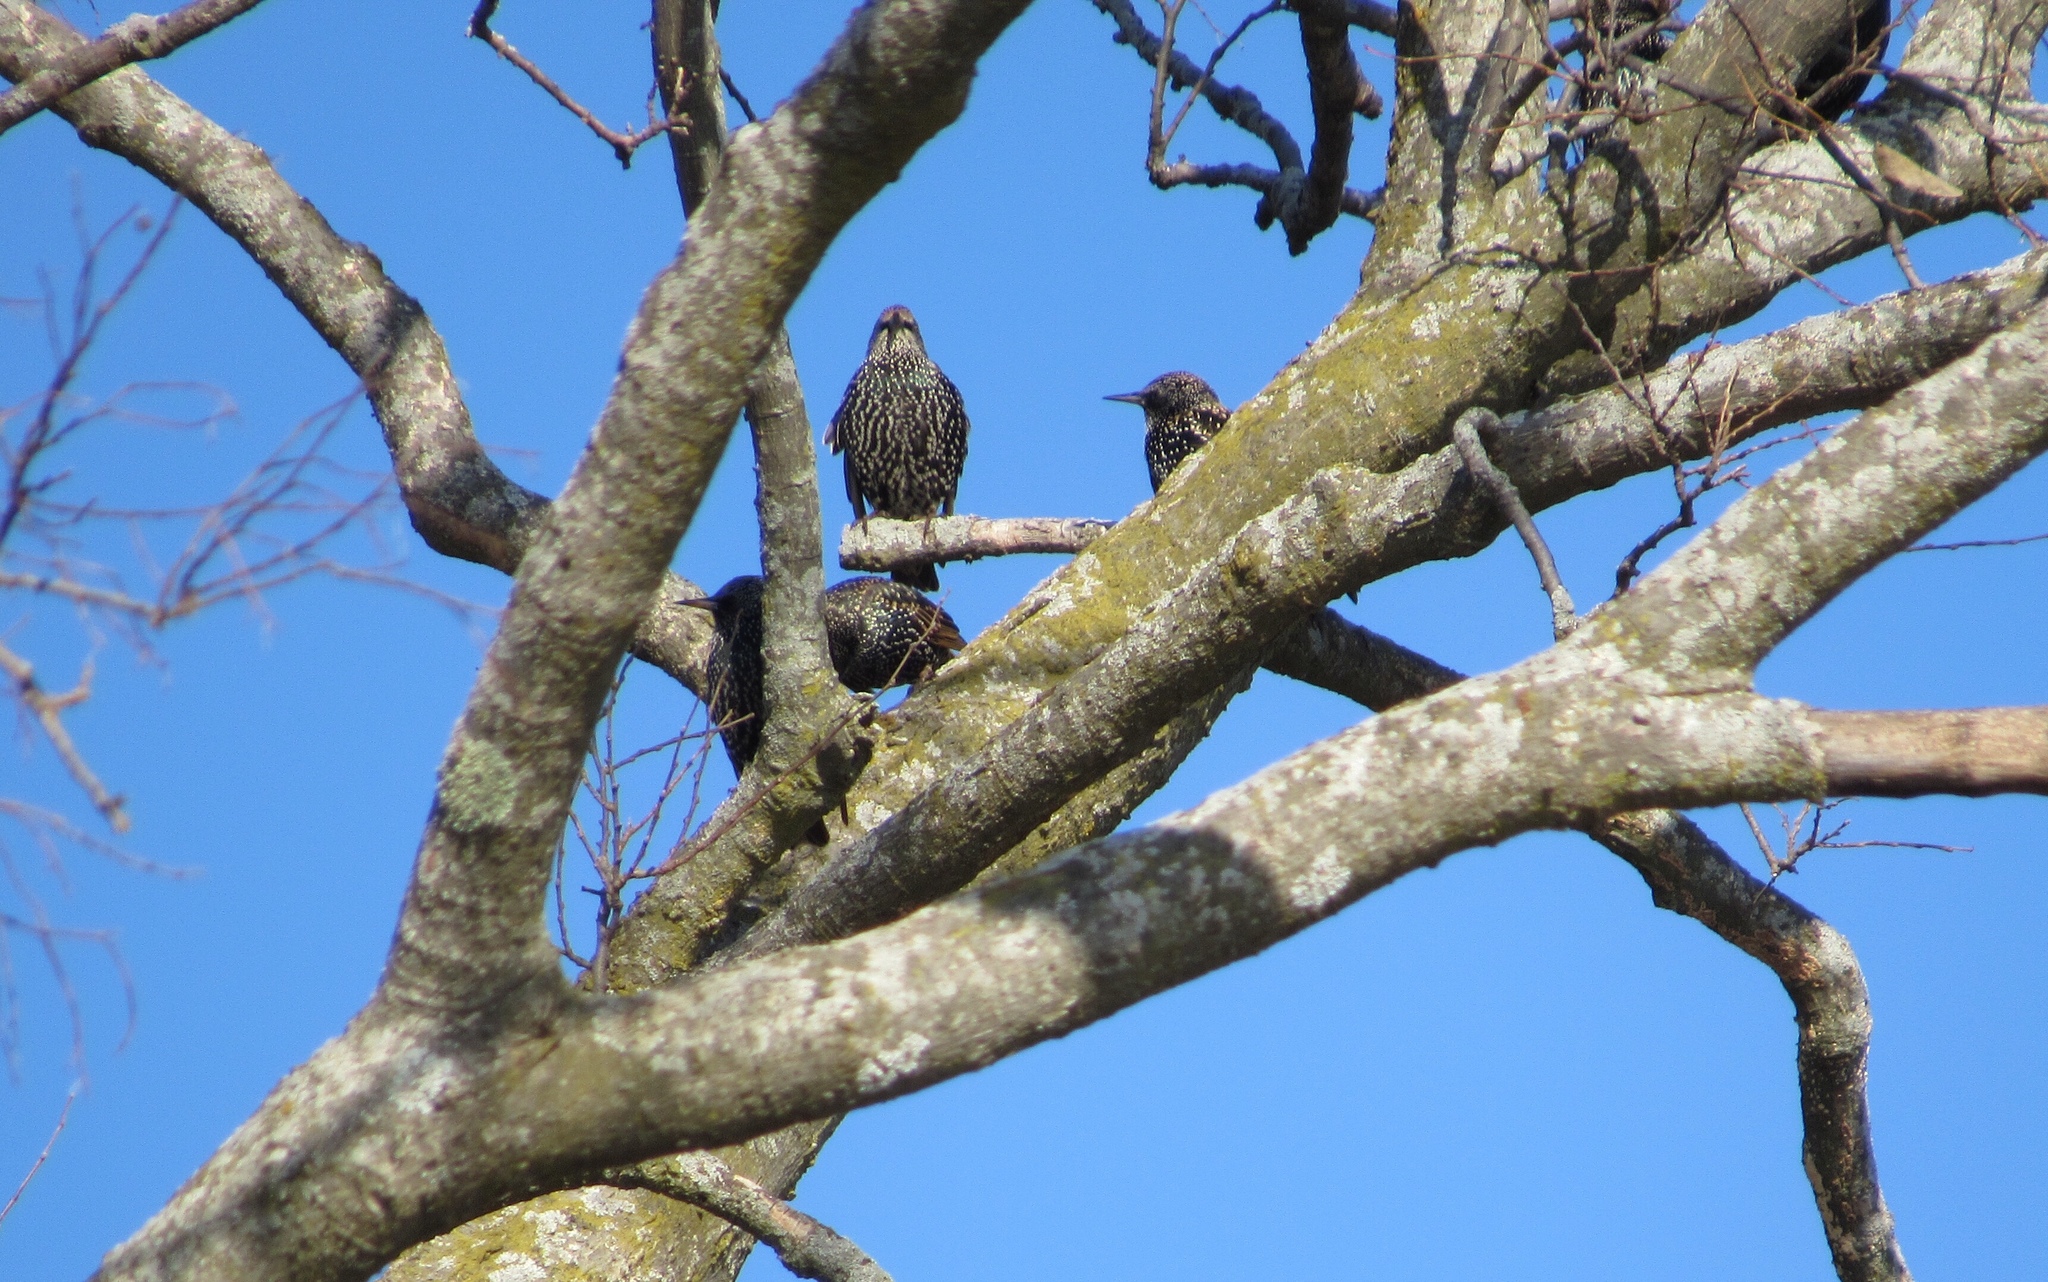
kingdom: Animalia
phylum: Chordata
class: Aves
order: Passeriformes
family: Sturnidae
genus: Sturnus
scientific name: Sturnus vulgaris
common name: Common starling
